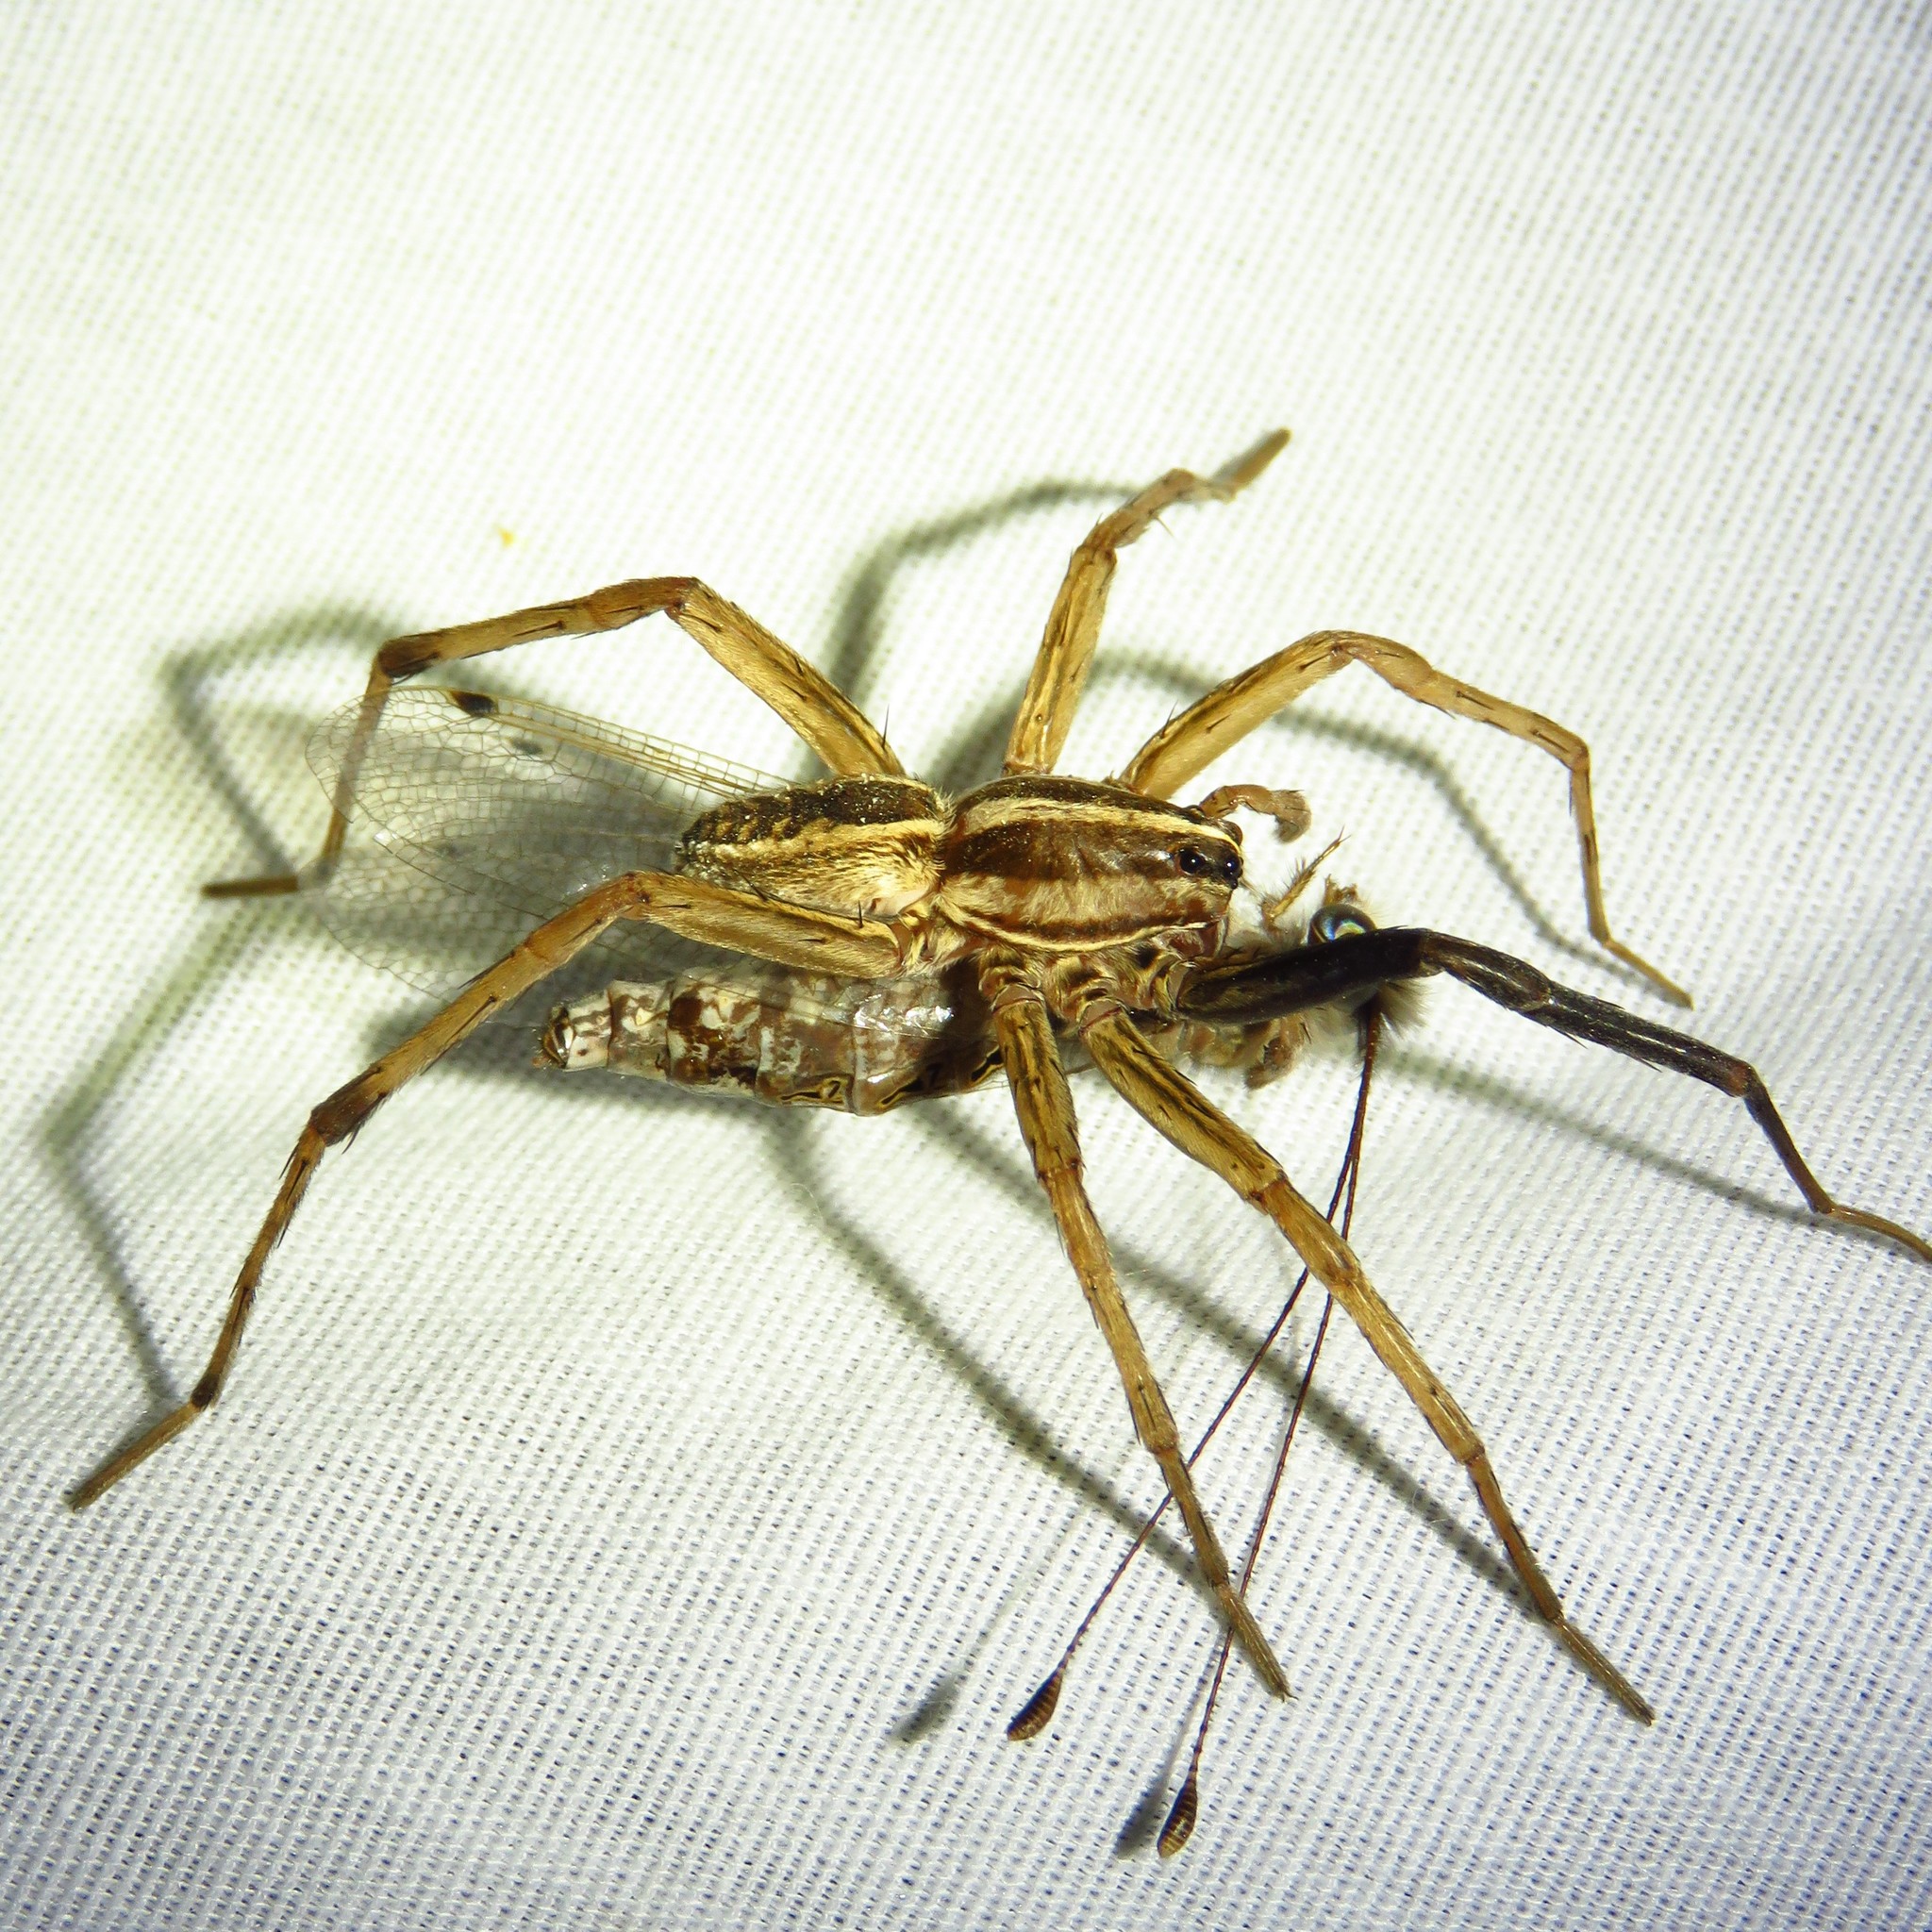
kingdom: Animalia
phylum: Arthropoda
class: Arachnida
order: Araneae
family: Lycosidae
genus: Rabidosa
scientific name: Rabidosa rabida
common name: Rabid wolf spider
